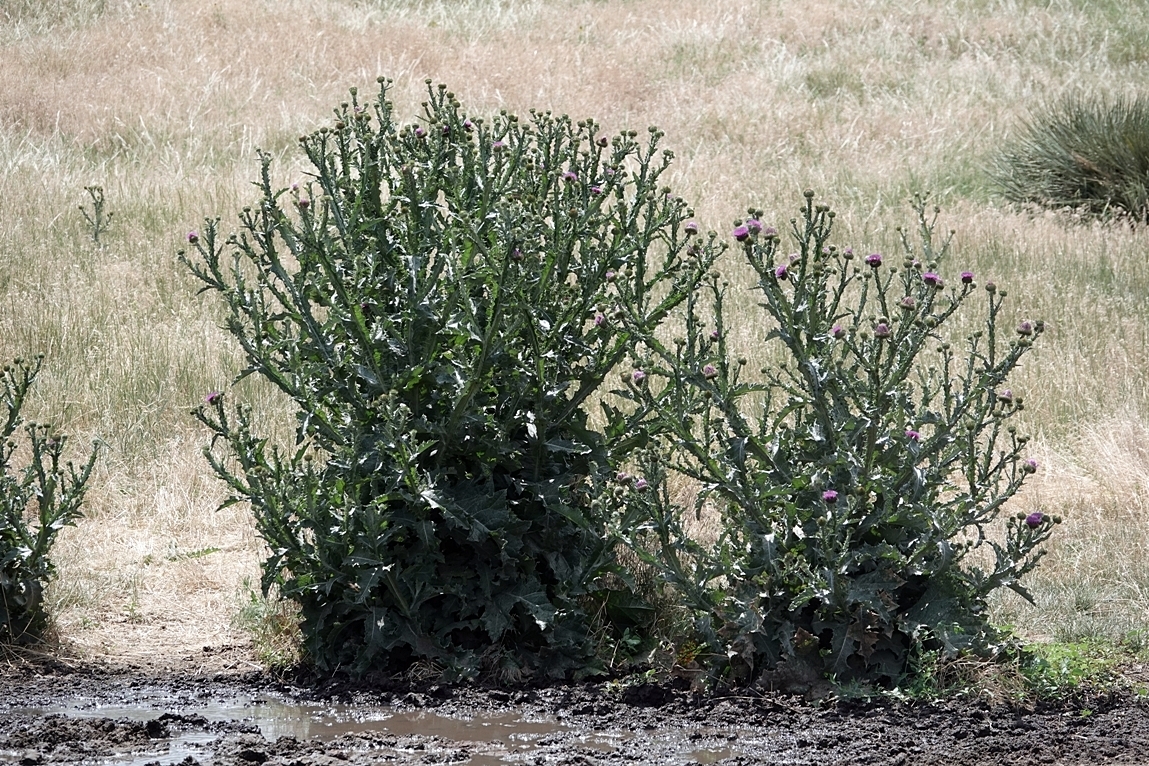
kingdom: Plantae
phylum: Tracheophyta
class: Magnoliopsida
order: Asterales
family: Asteraceae
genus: Onopordum
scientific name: Onopordum acanthium
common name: Scotch thistle
